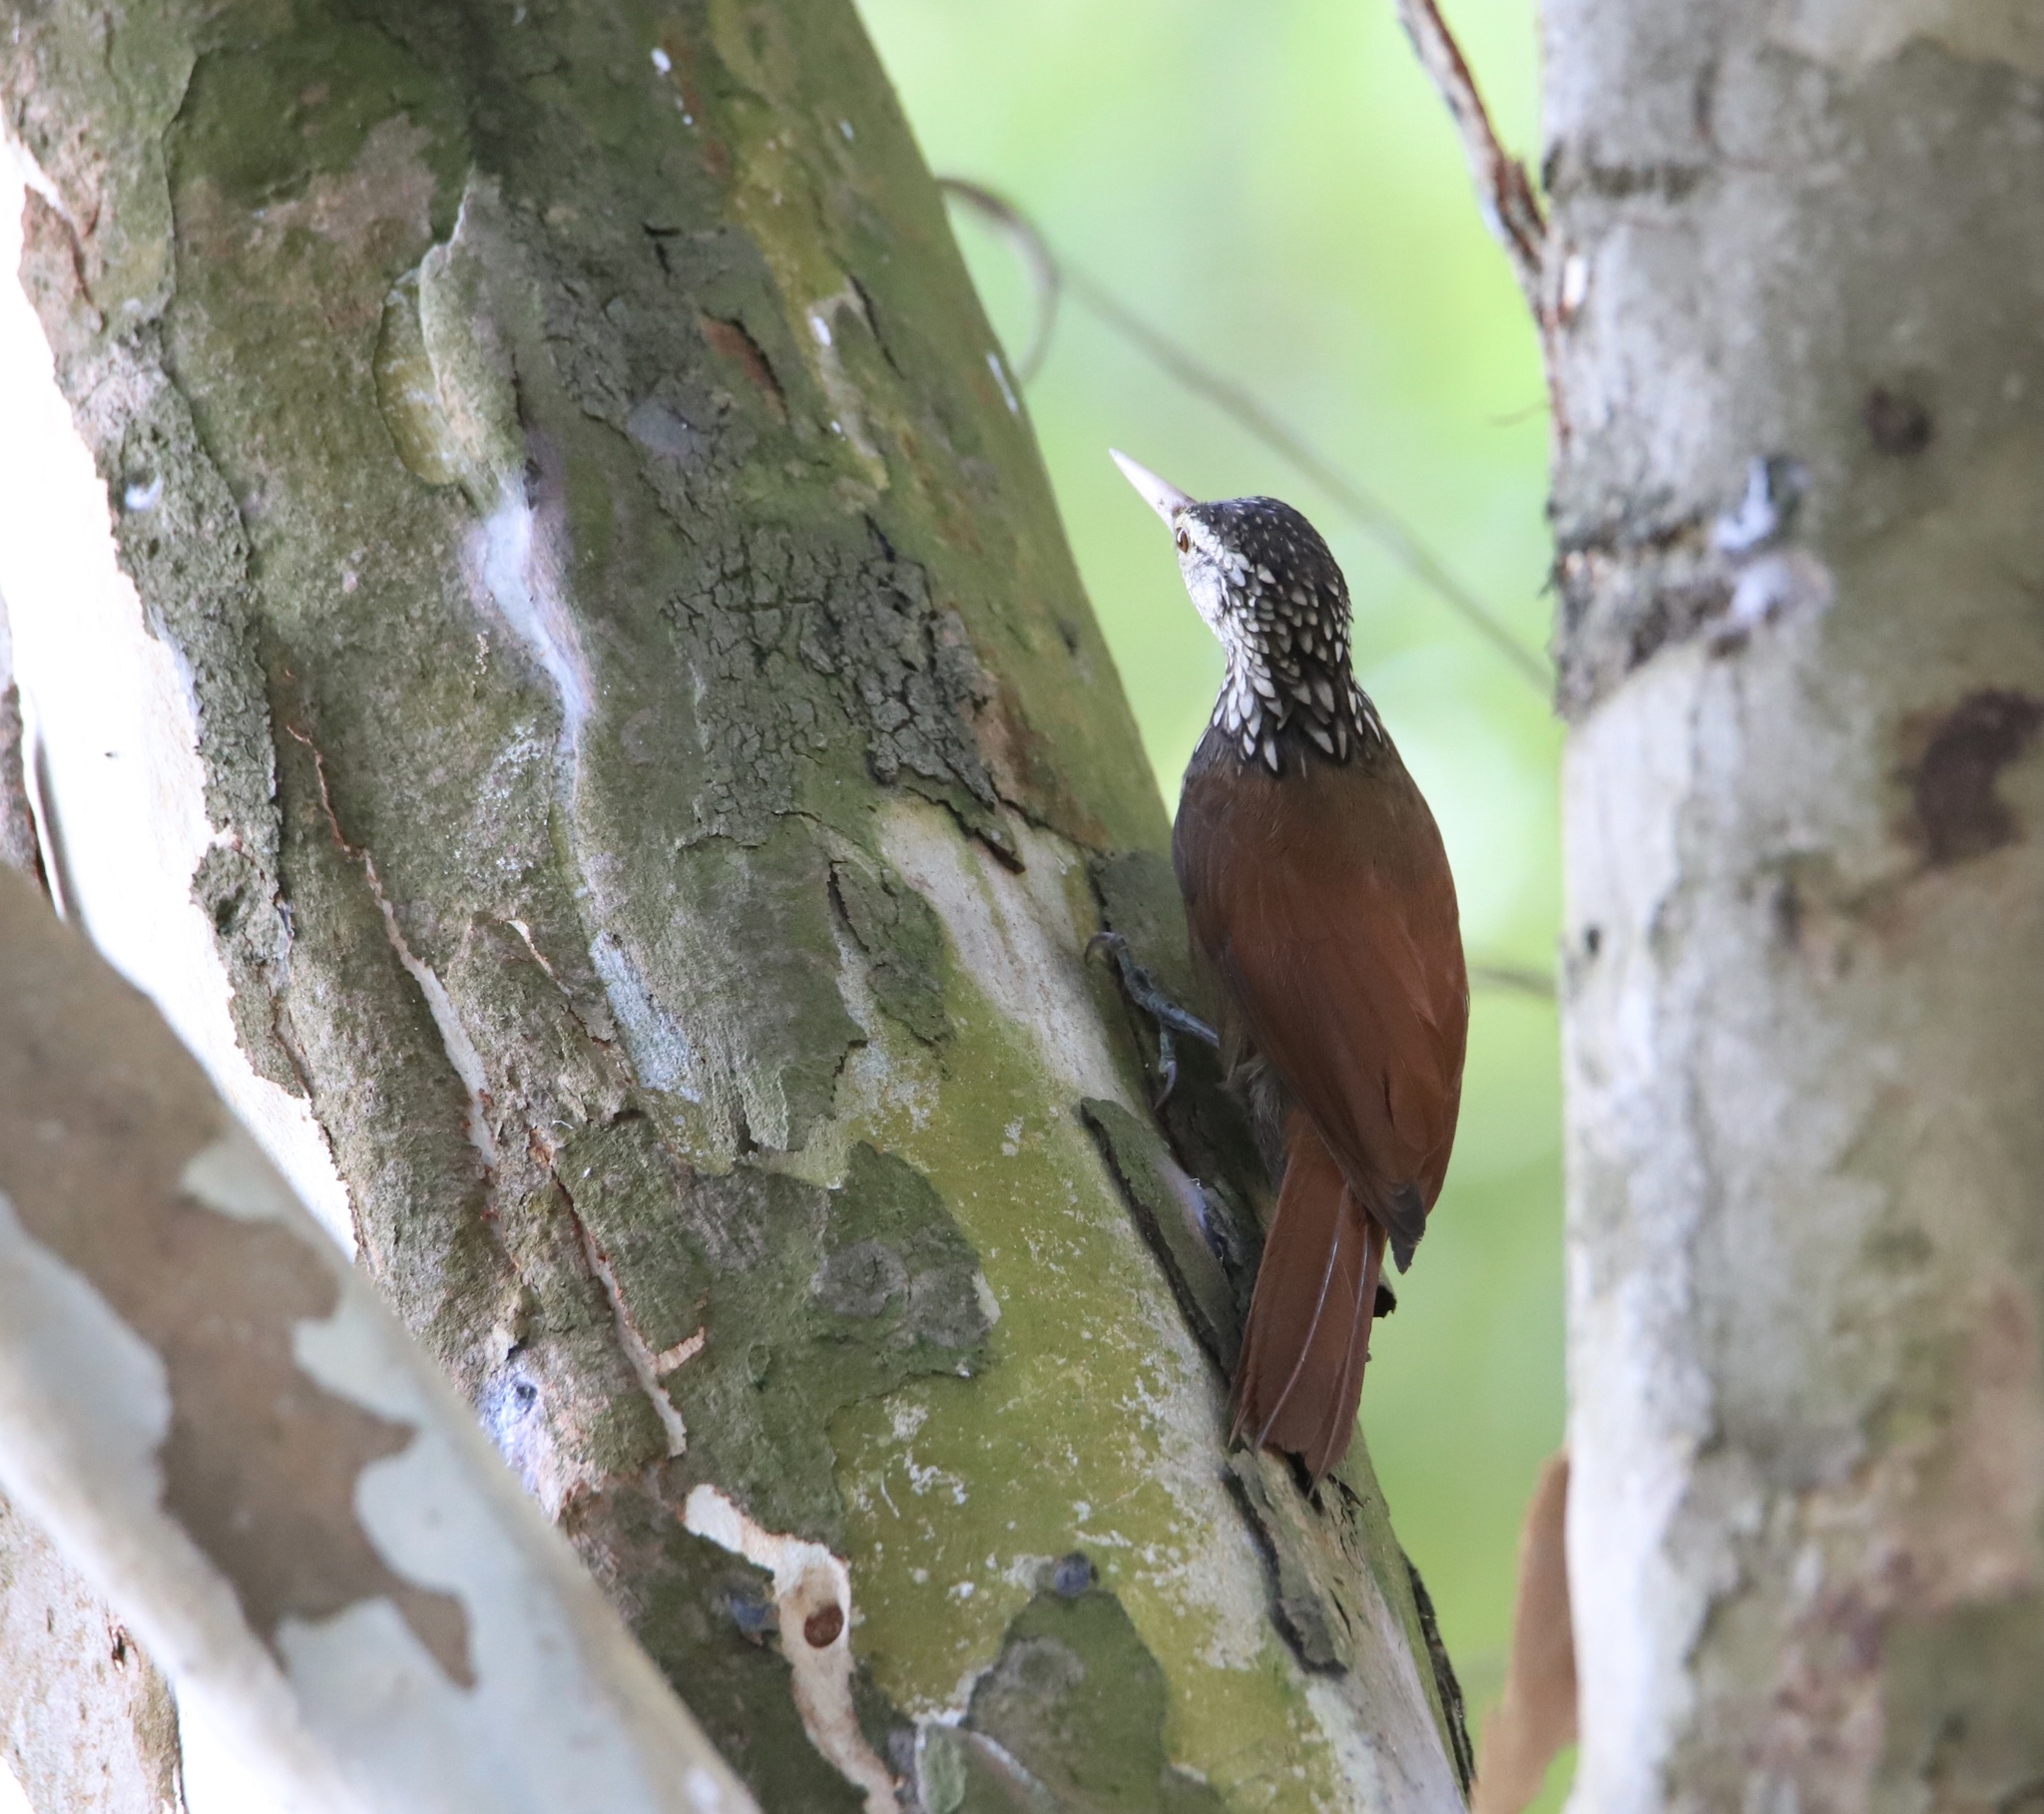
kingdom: Animalia
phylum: Chordata
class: Aves
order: Passeriformes
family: Furnariidae
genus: Xiphorhynchus
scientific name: Xiphorhynchus picus
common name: Straight-billed woodcreeper
